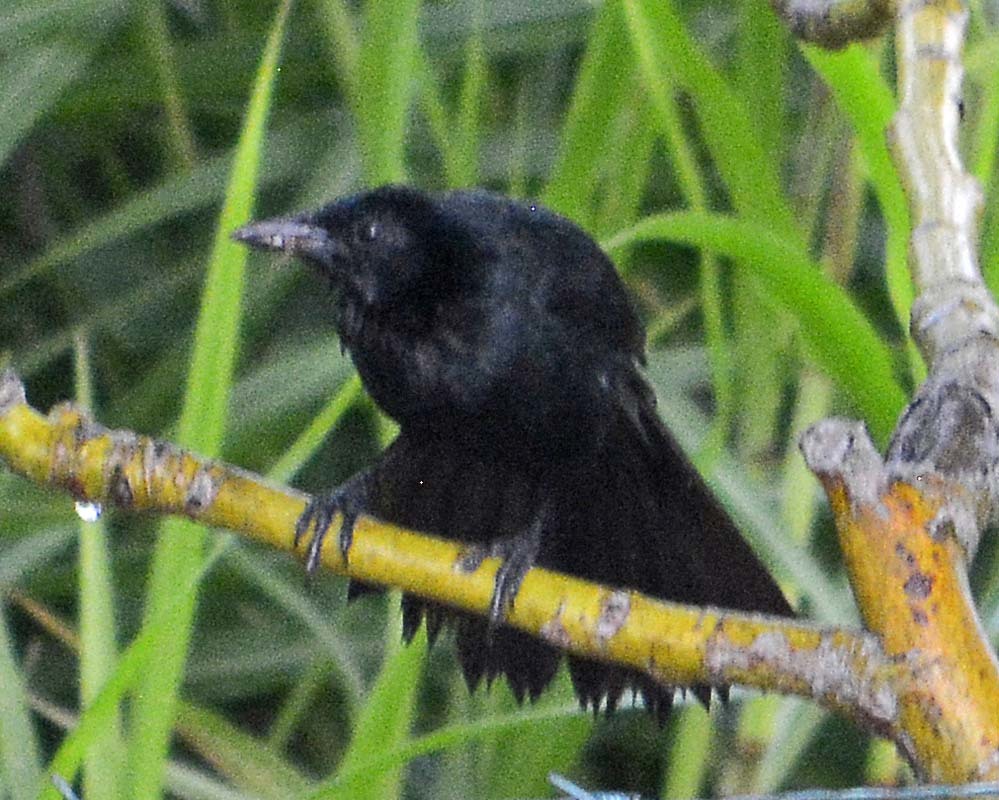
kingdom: Animalia
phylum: Chordata
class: Aves
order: Passeriformes
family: Icteridae
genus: Dives
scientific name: Dives dives
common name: Melodious blackbird
